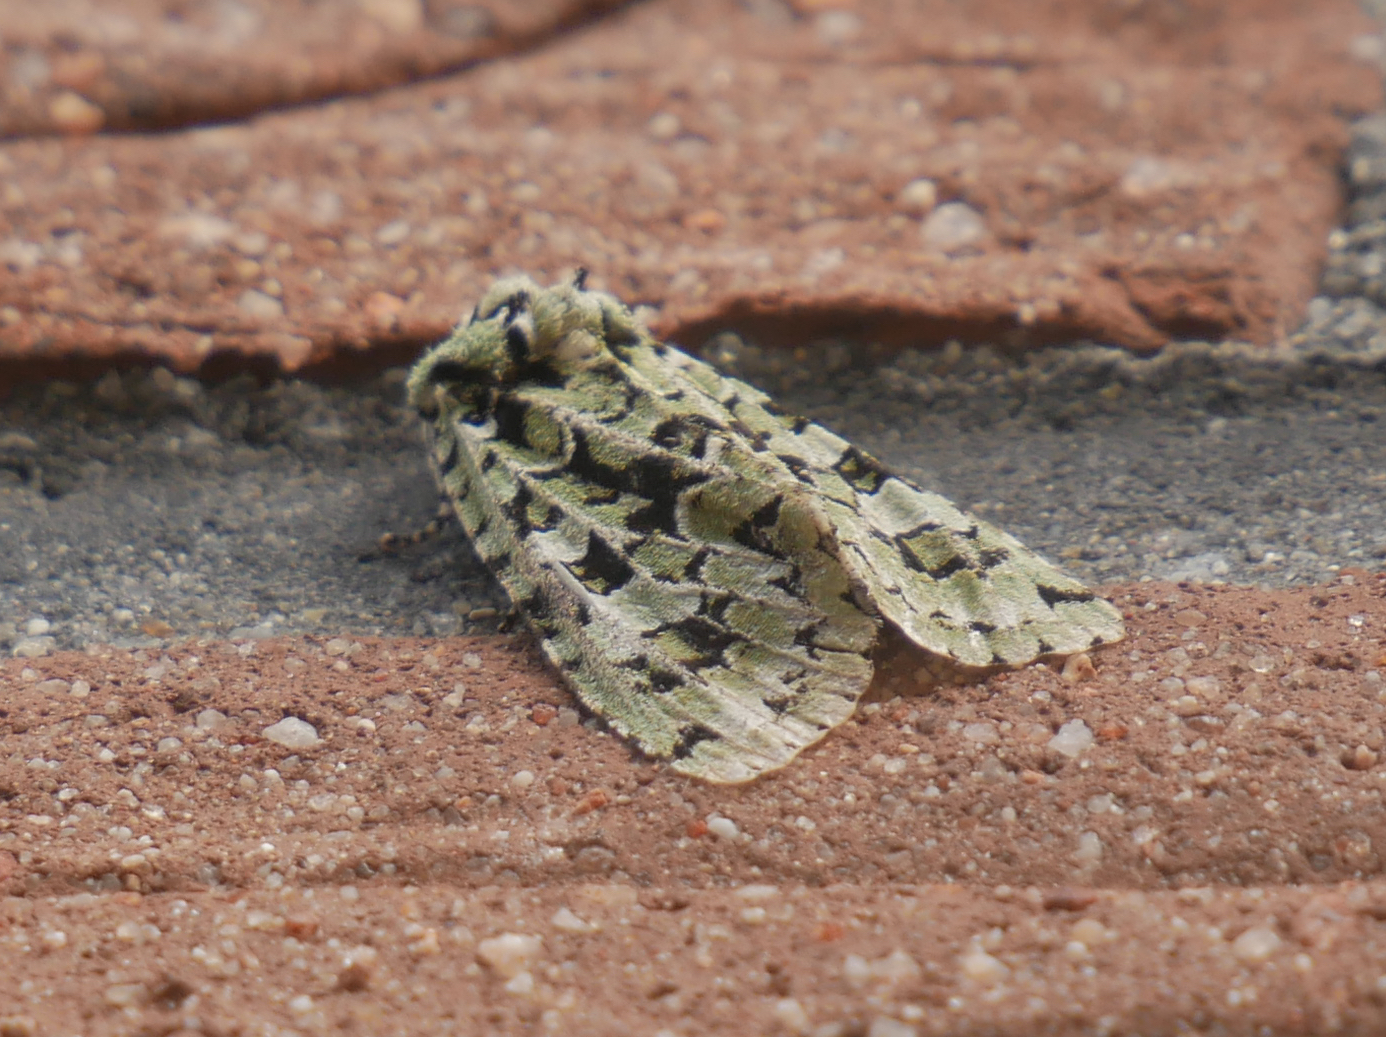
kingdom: Animalia
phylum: Arthropoda
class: Insecta
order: Lepidoptera
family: Noctuidae
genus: Griposia
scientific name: Griposia aprilina
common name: Merveille du jour
